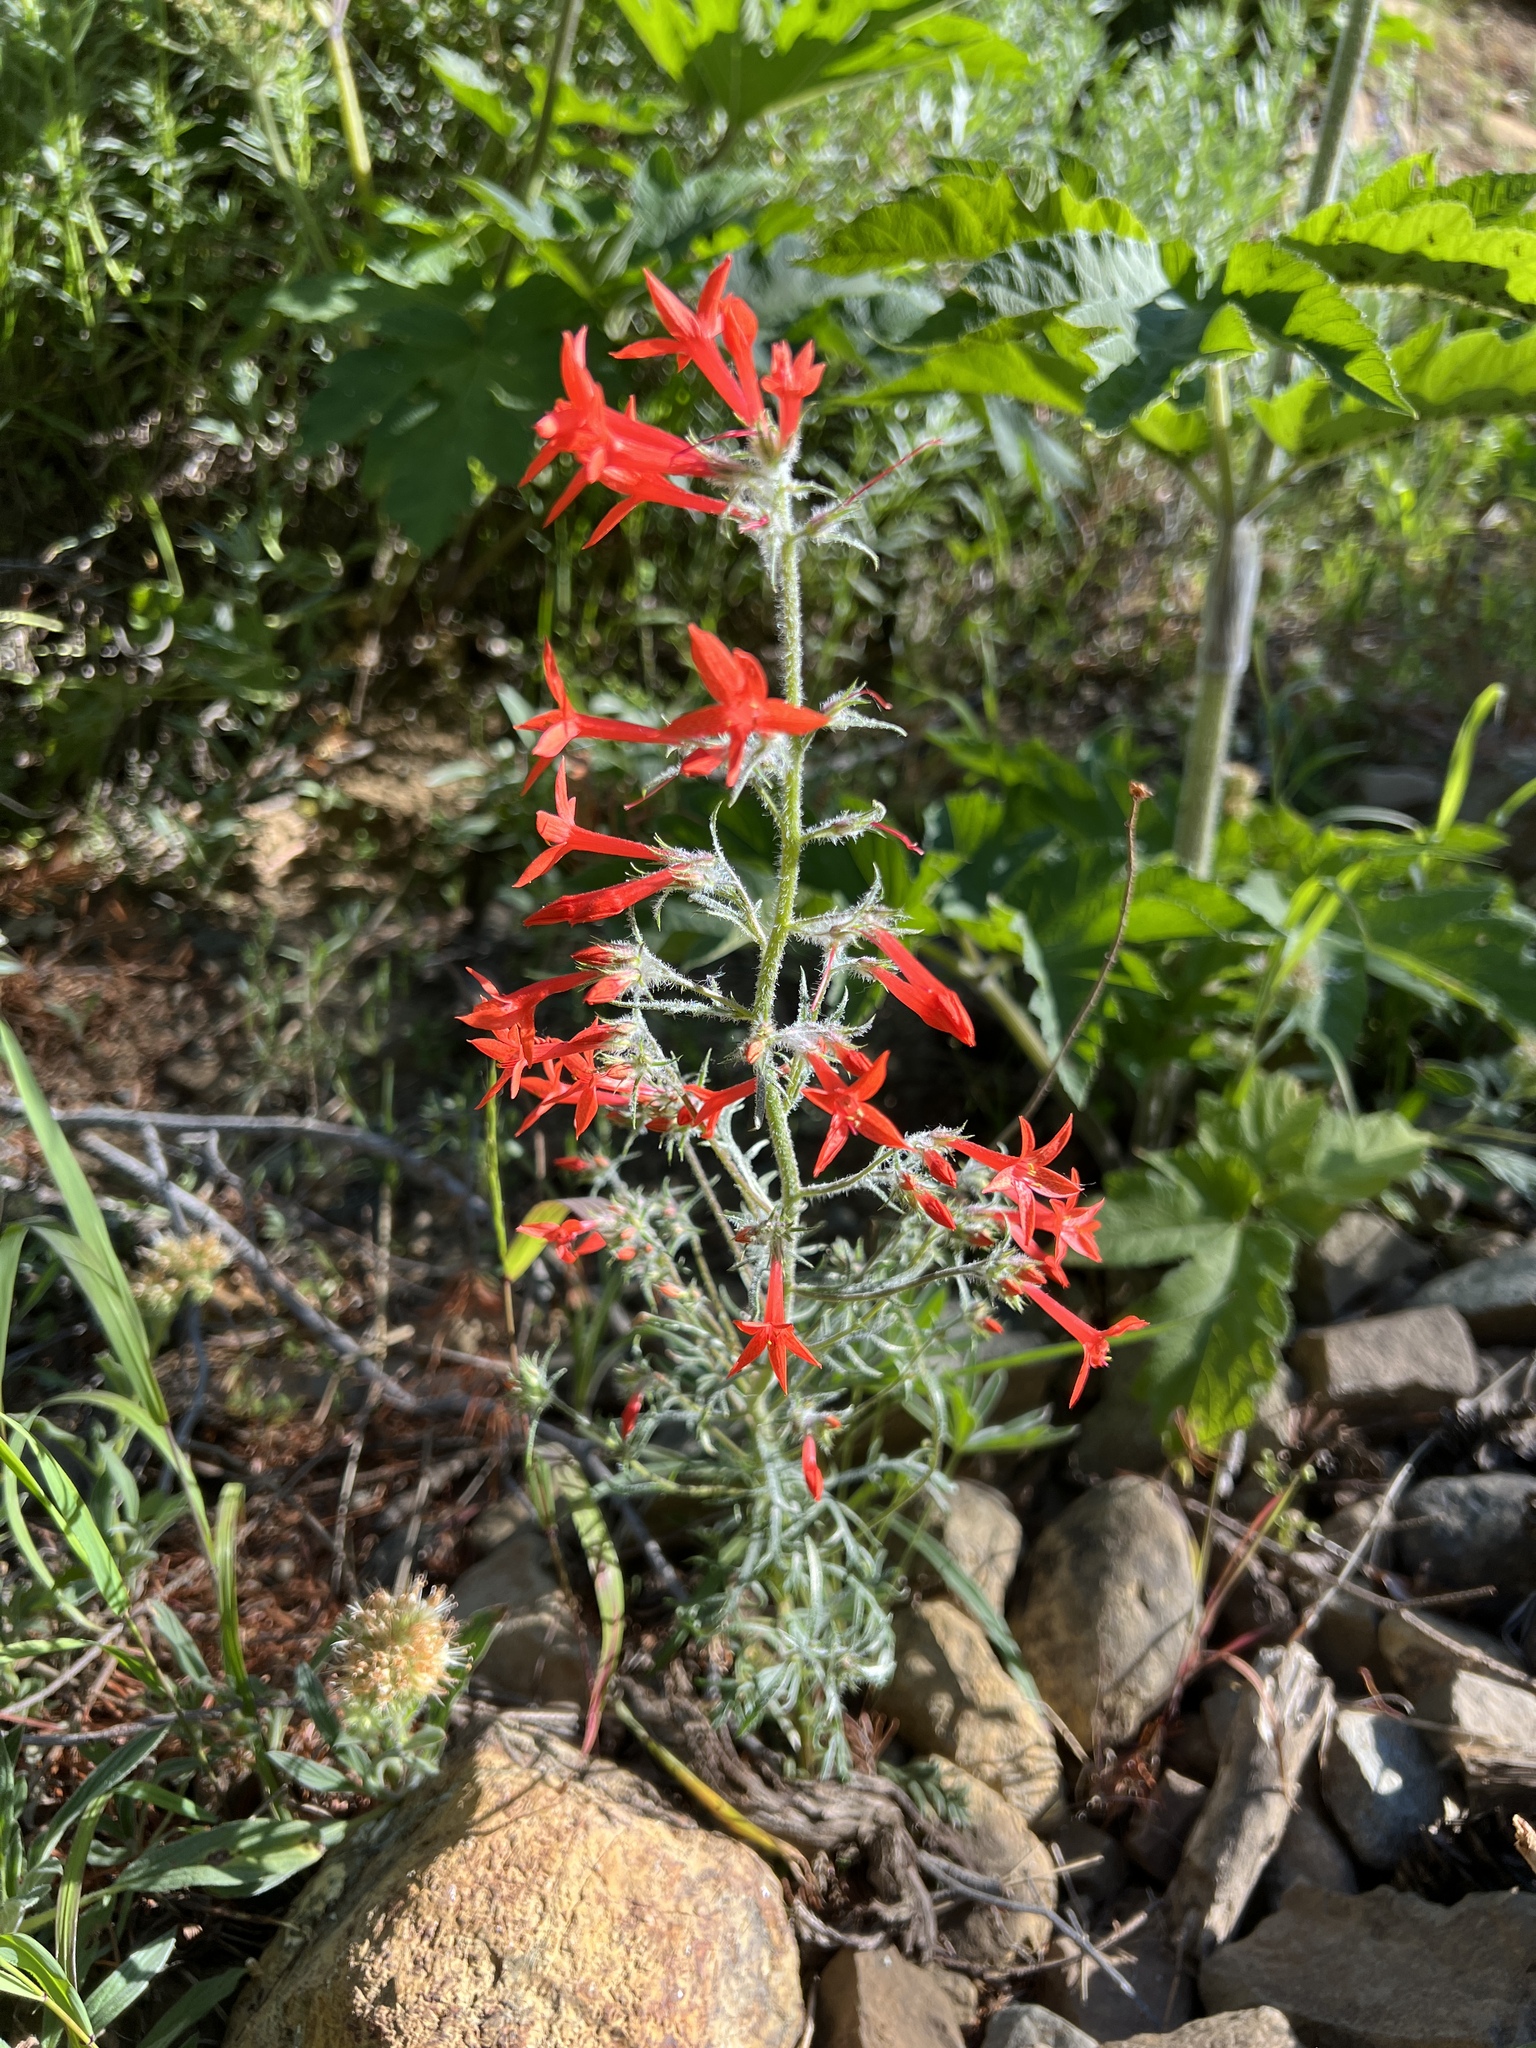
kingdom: Plantae
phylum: Tracheophyta
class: Magnoliopsida
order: Ericales
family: Polemoniaceae
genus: Ipomopsis
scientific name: Ipomopsis aggregata
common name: Scarlet gilia
